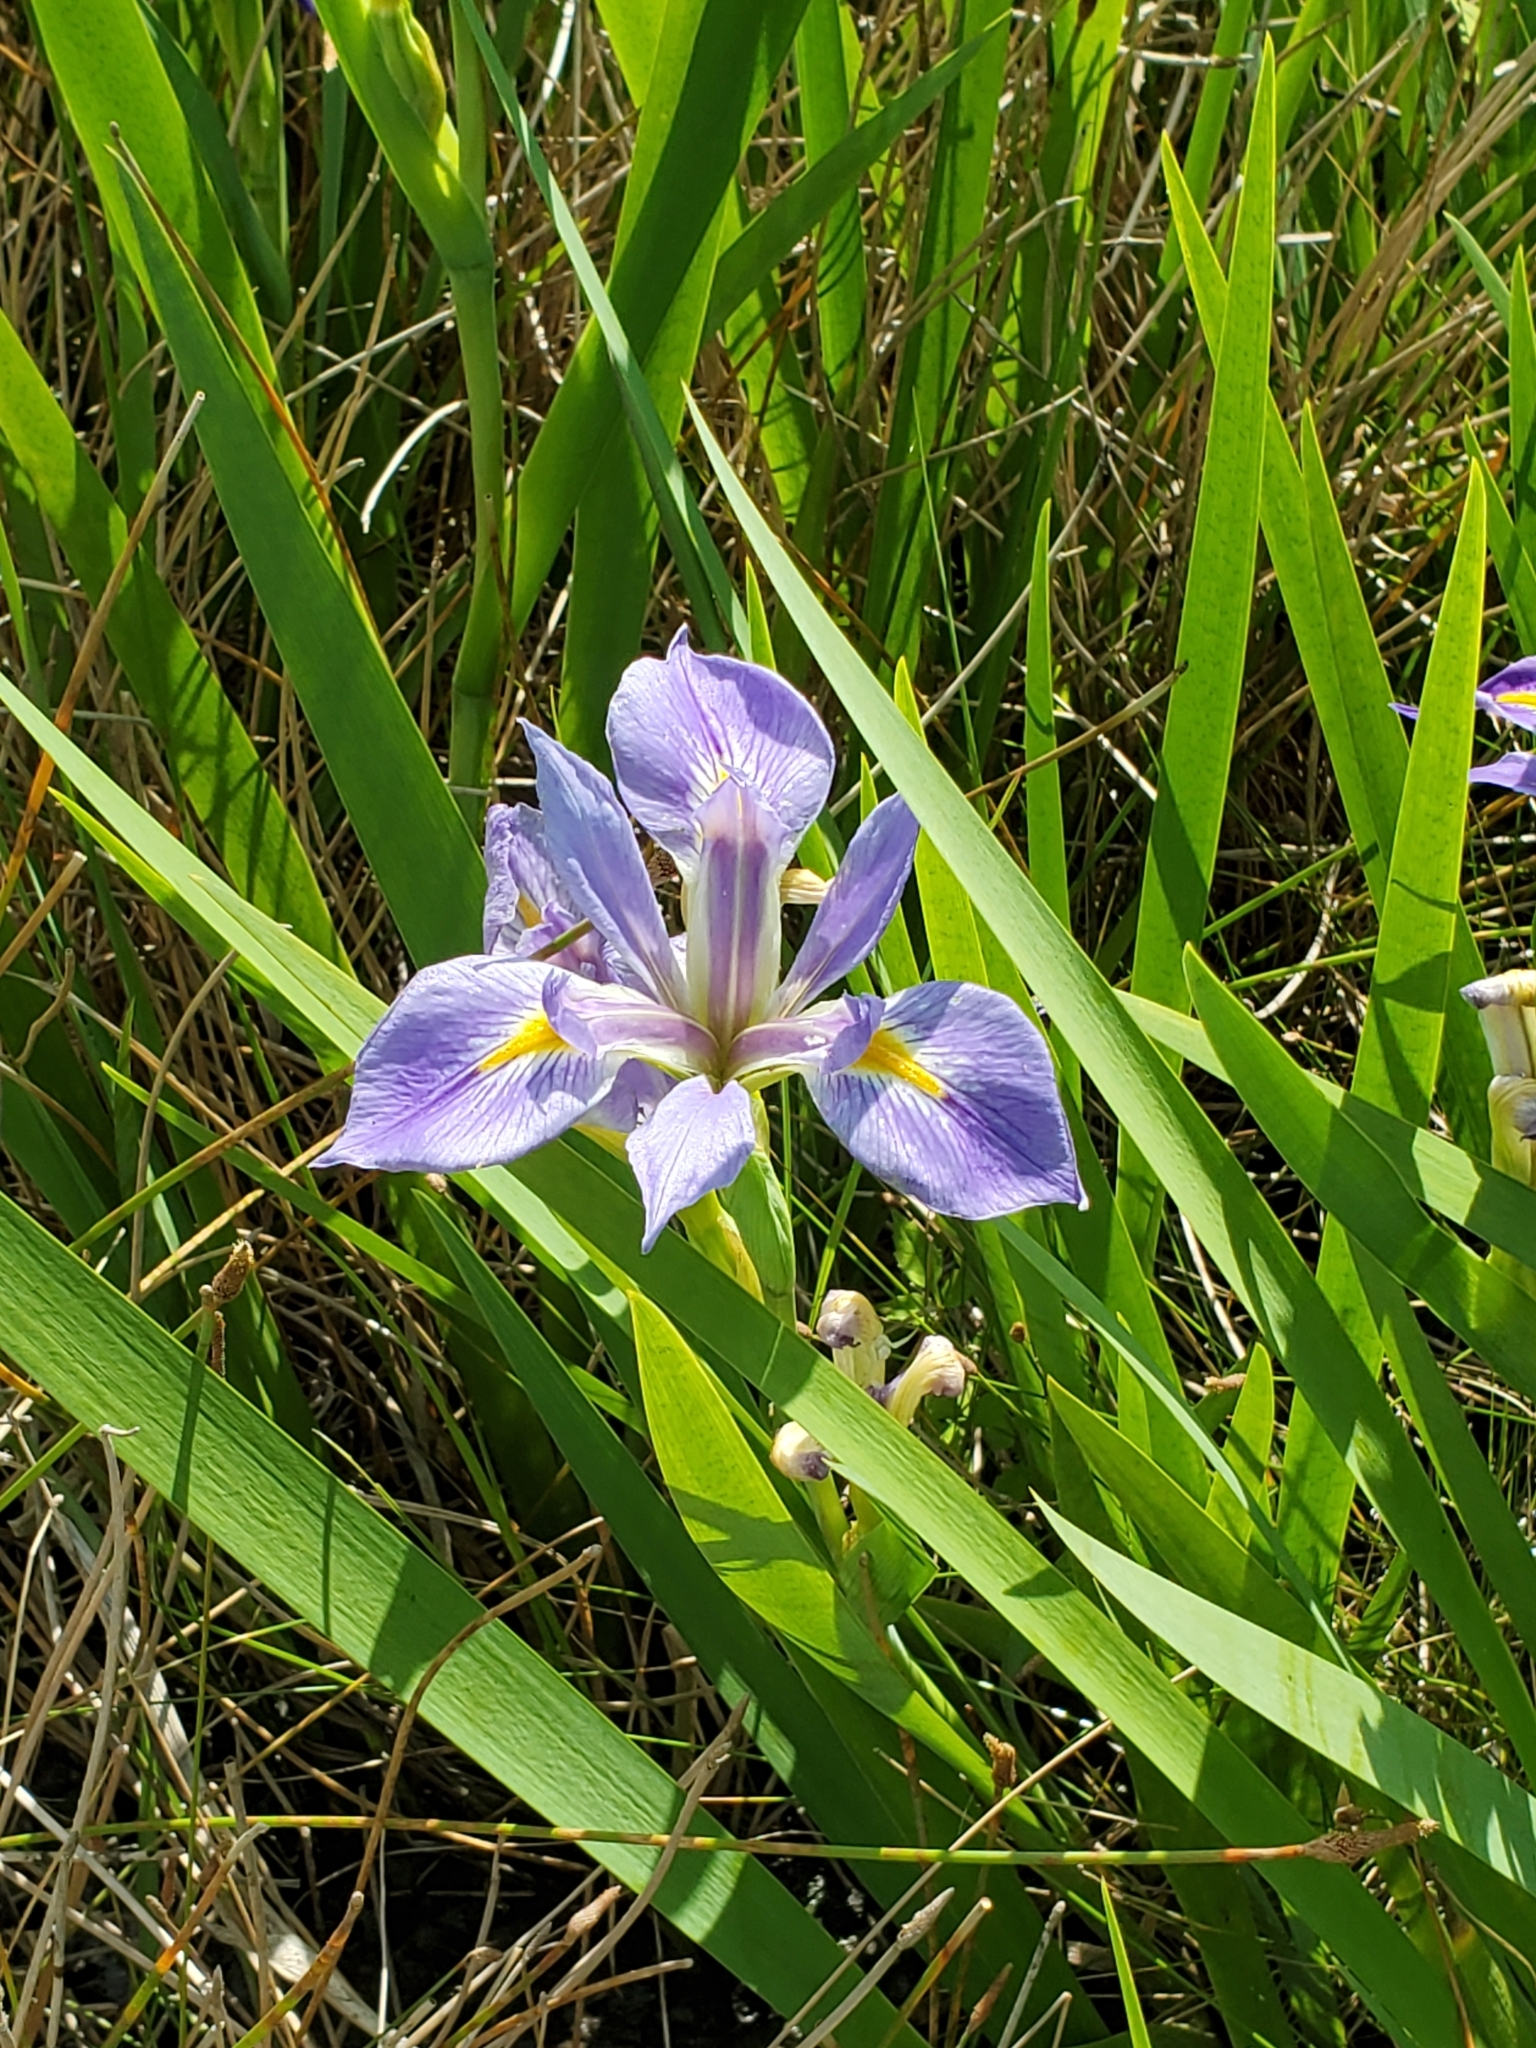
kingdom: Plantae
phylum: Tracheophyta
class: Liliopsida
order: Asparagales
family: Iridaceae
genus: Iris
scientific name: Iris brevicaulis
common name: Zigzag iris
